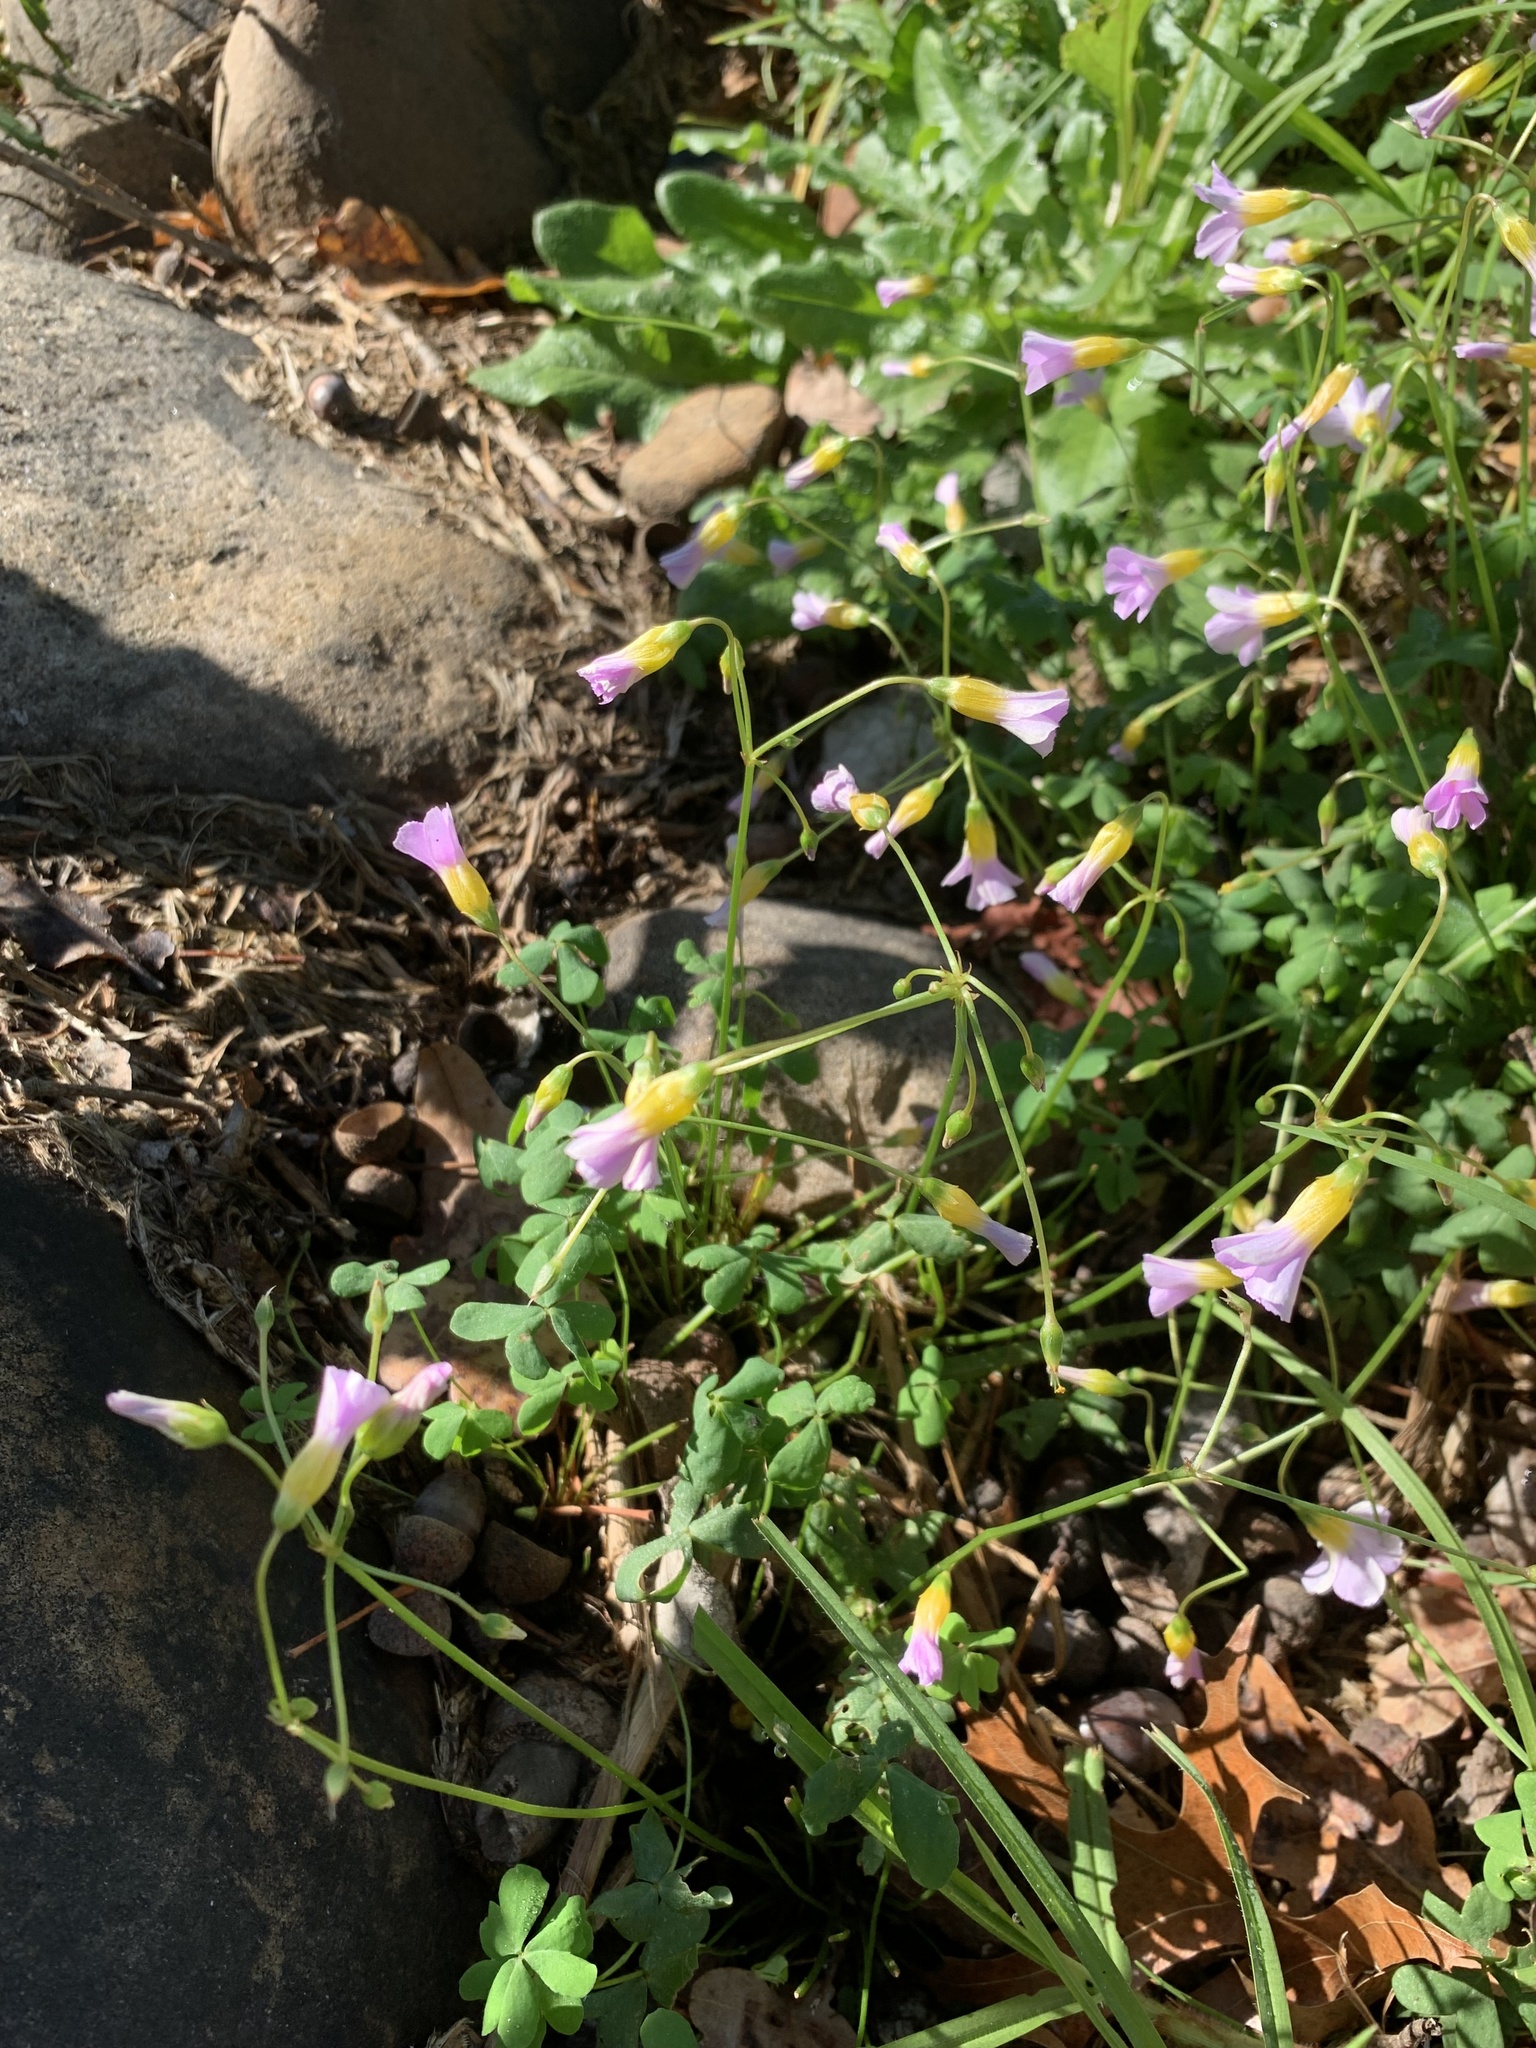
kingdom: Plantae
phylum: Tracheophyta
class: Magnoliopsida
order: Oxalidales
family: Oxalidaceae
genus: Oxalis
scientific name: Oxalis caprina
